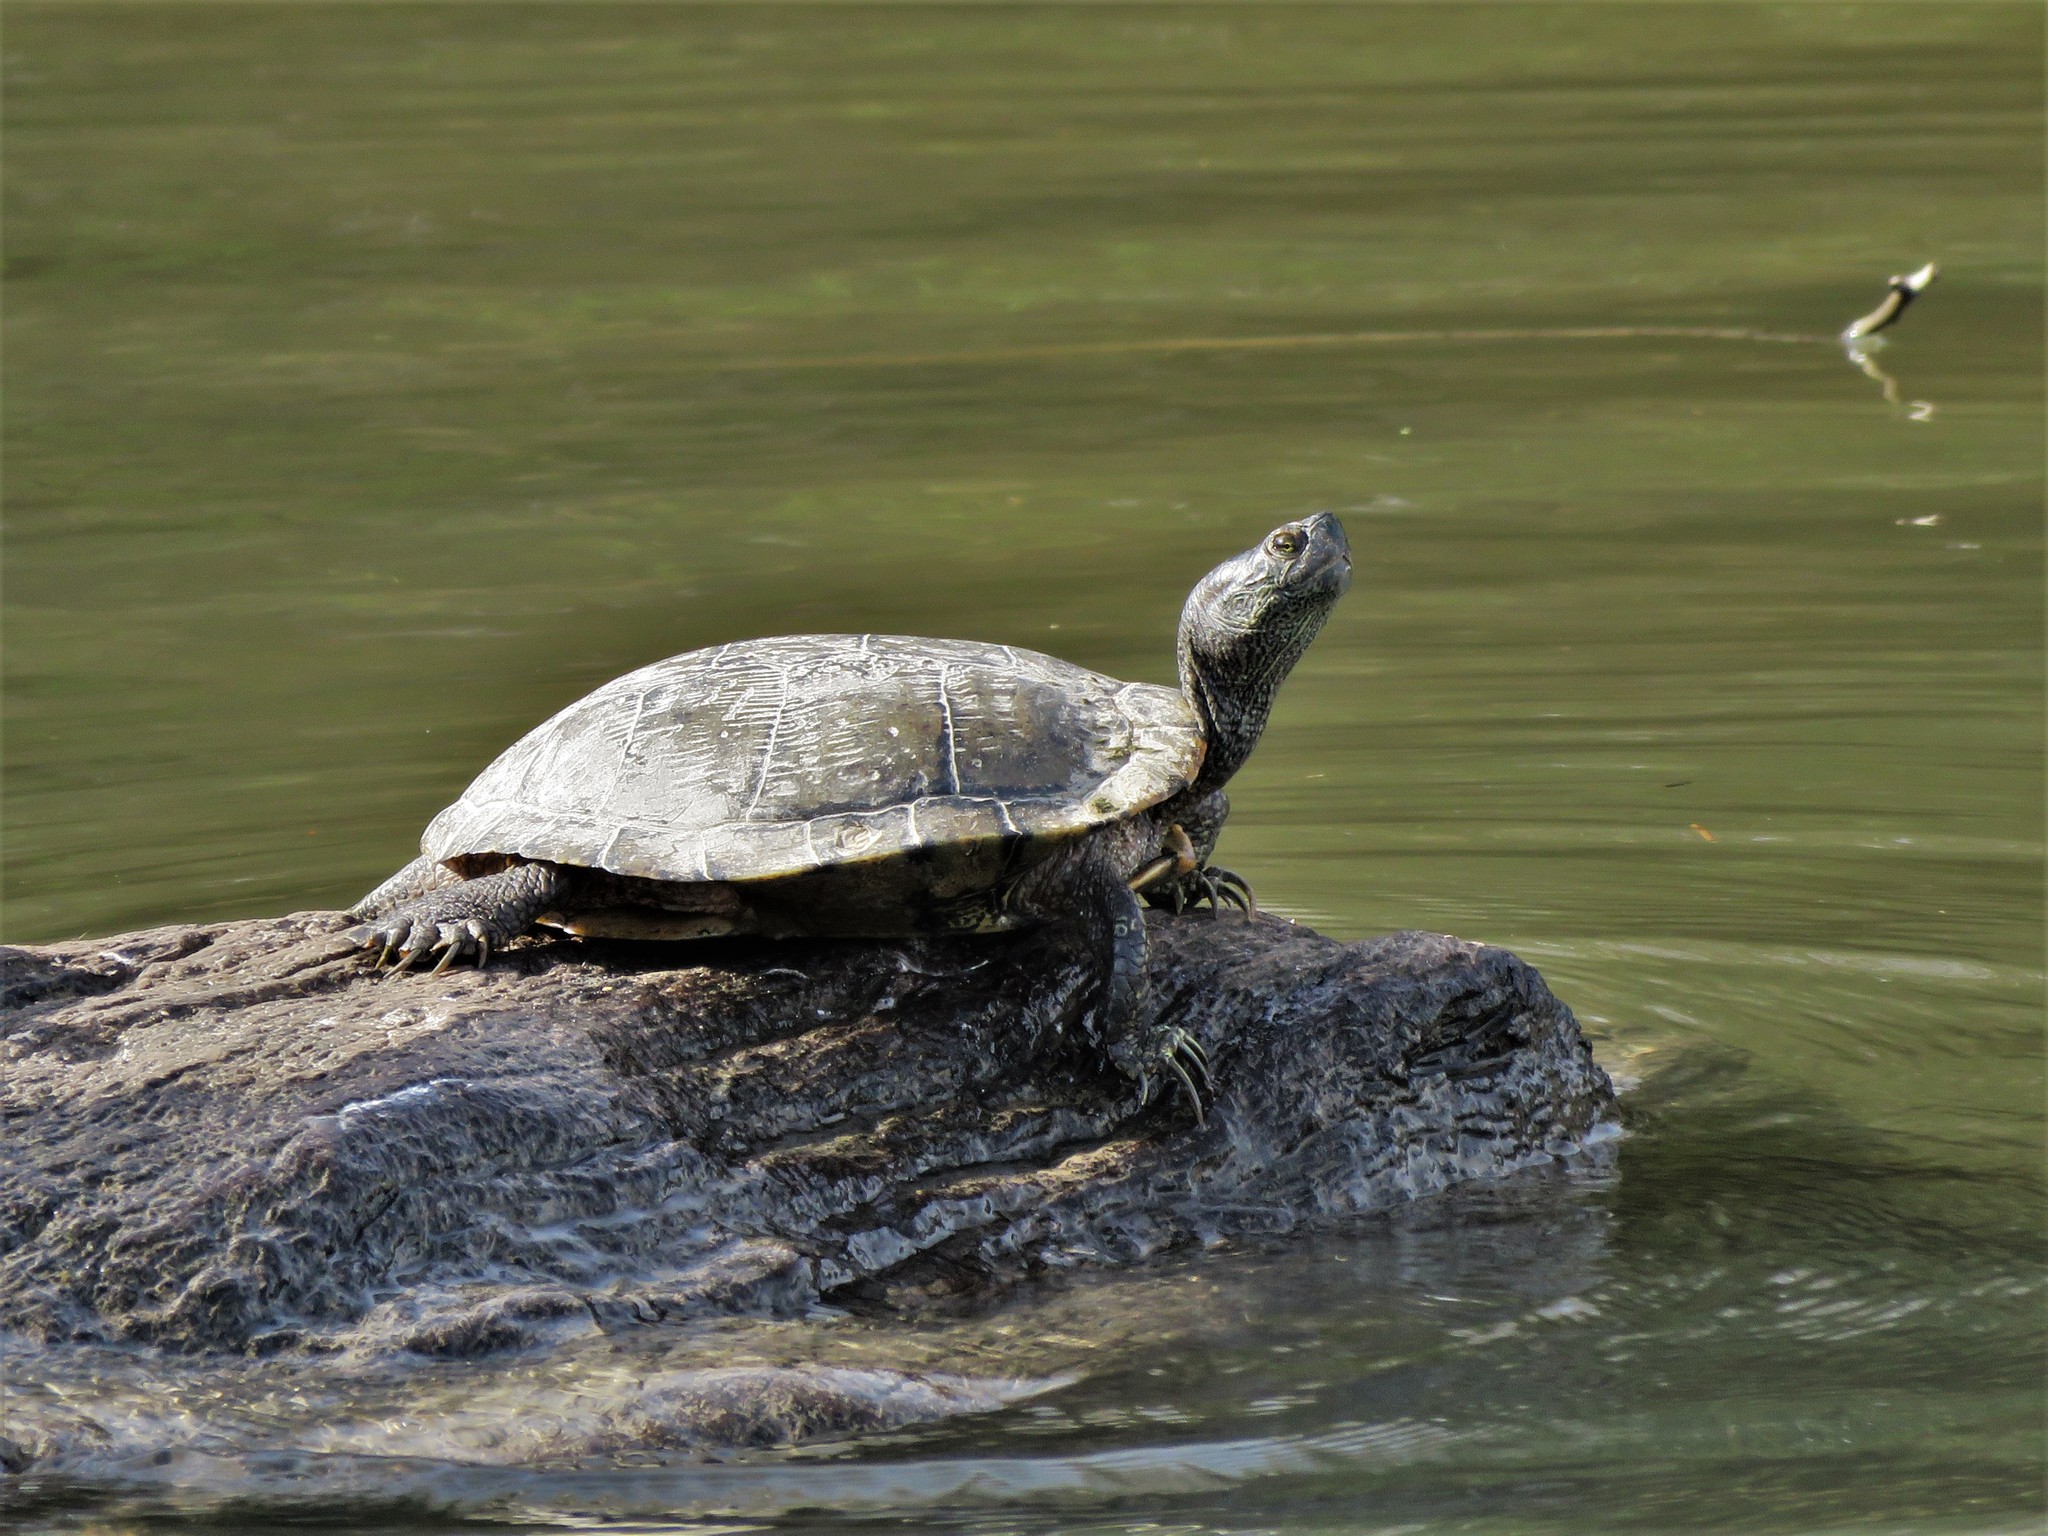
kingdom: Animalia
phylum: Chordata
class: Testudines
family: Emydidae
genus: Trachemys
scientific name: Trachemys scripta
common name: Slider
